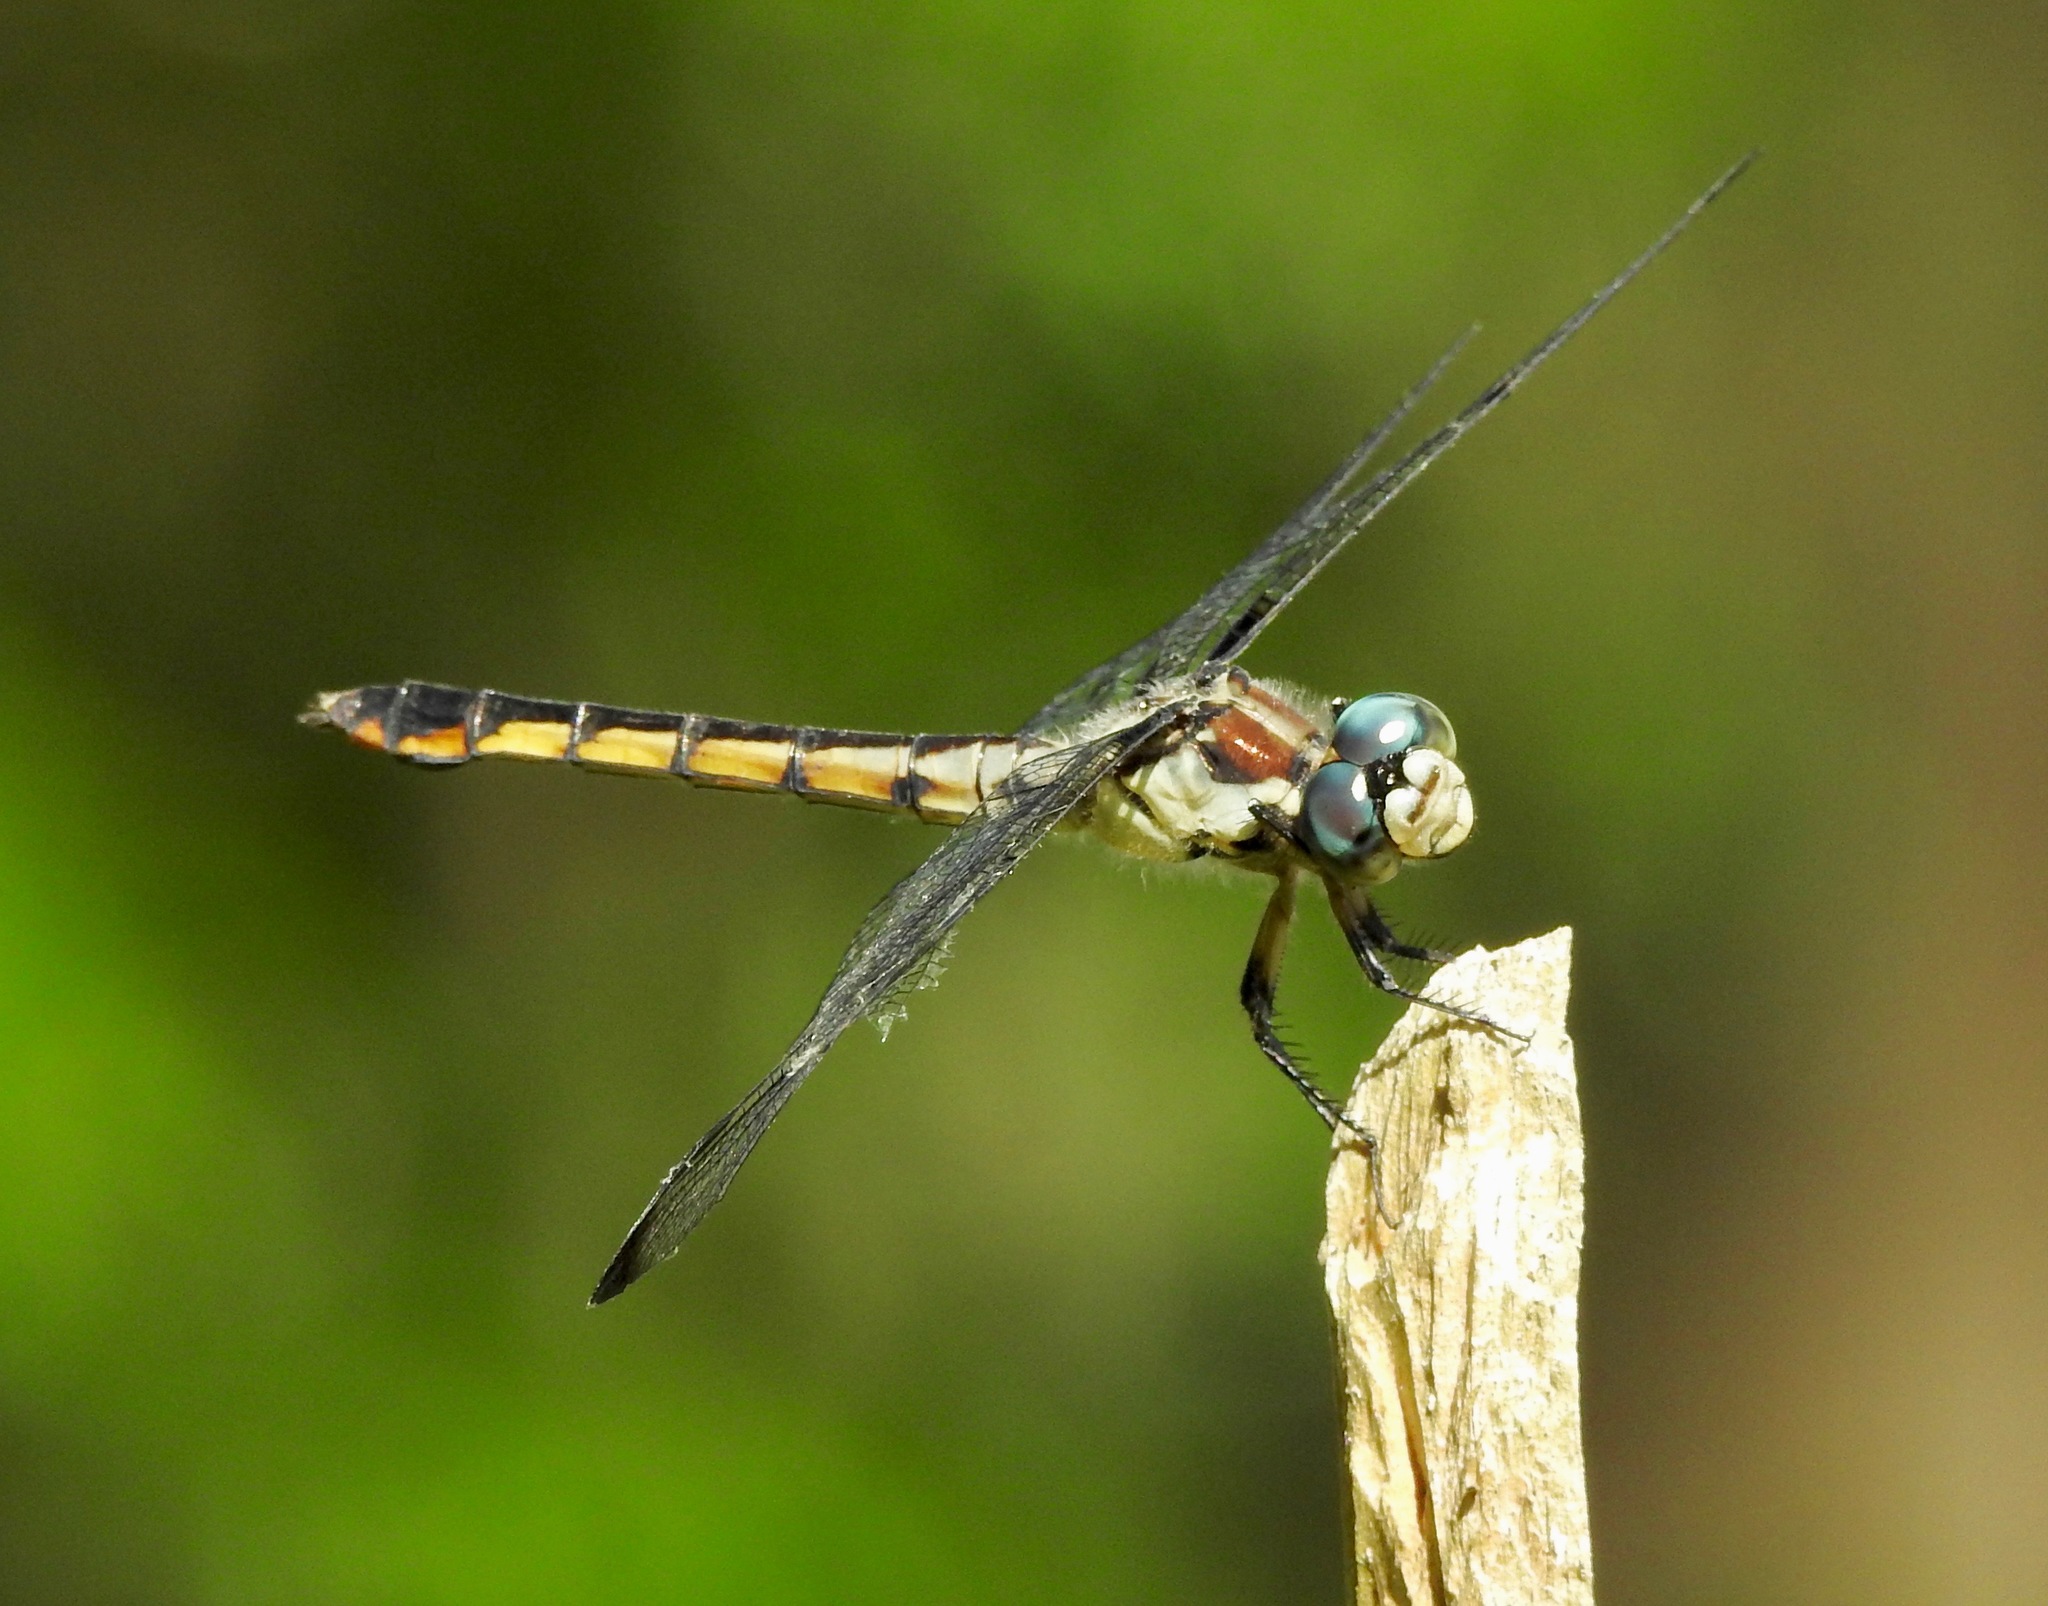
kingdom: Animalia
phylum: Arthropoda
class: Insecta
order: Odonata
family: Libellulidae
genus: Libellula
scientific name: Libellula vibrans
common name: Great blue skimmer
